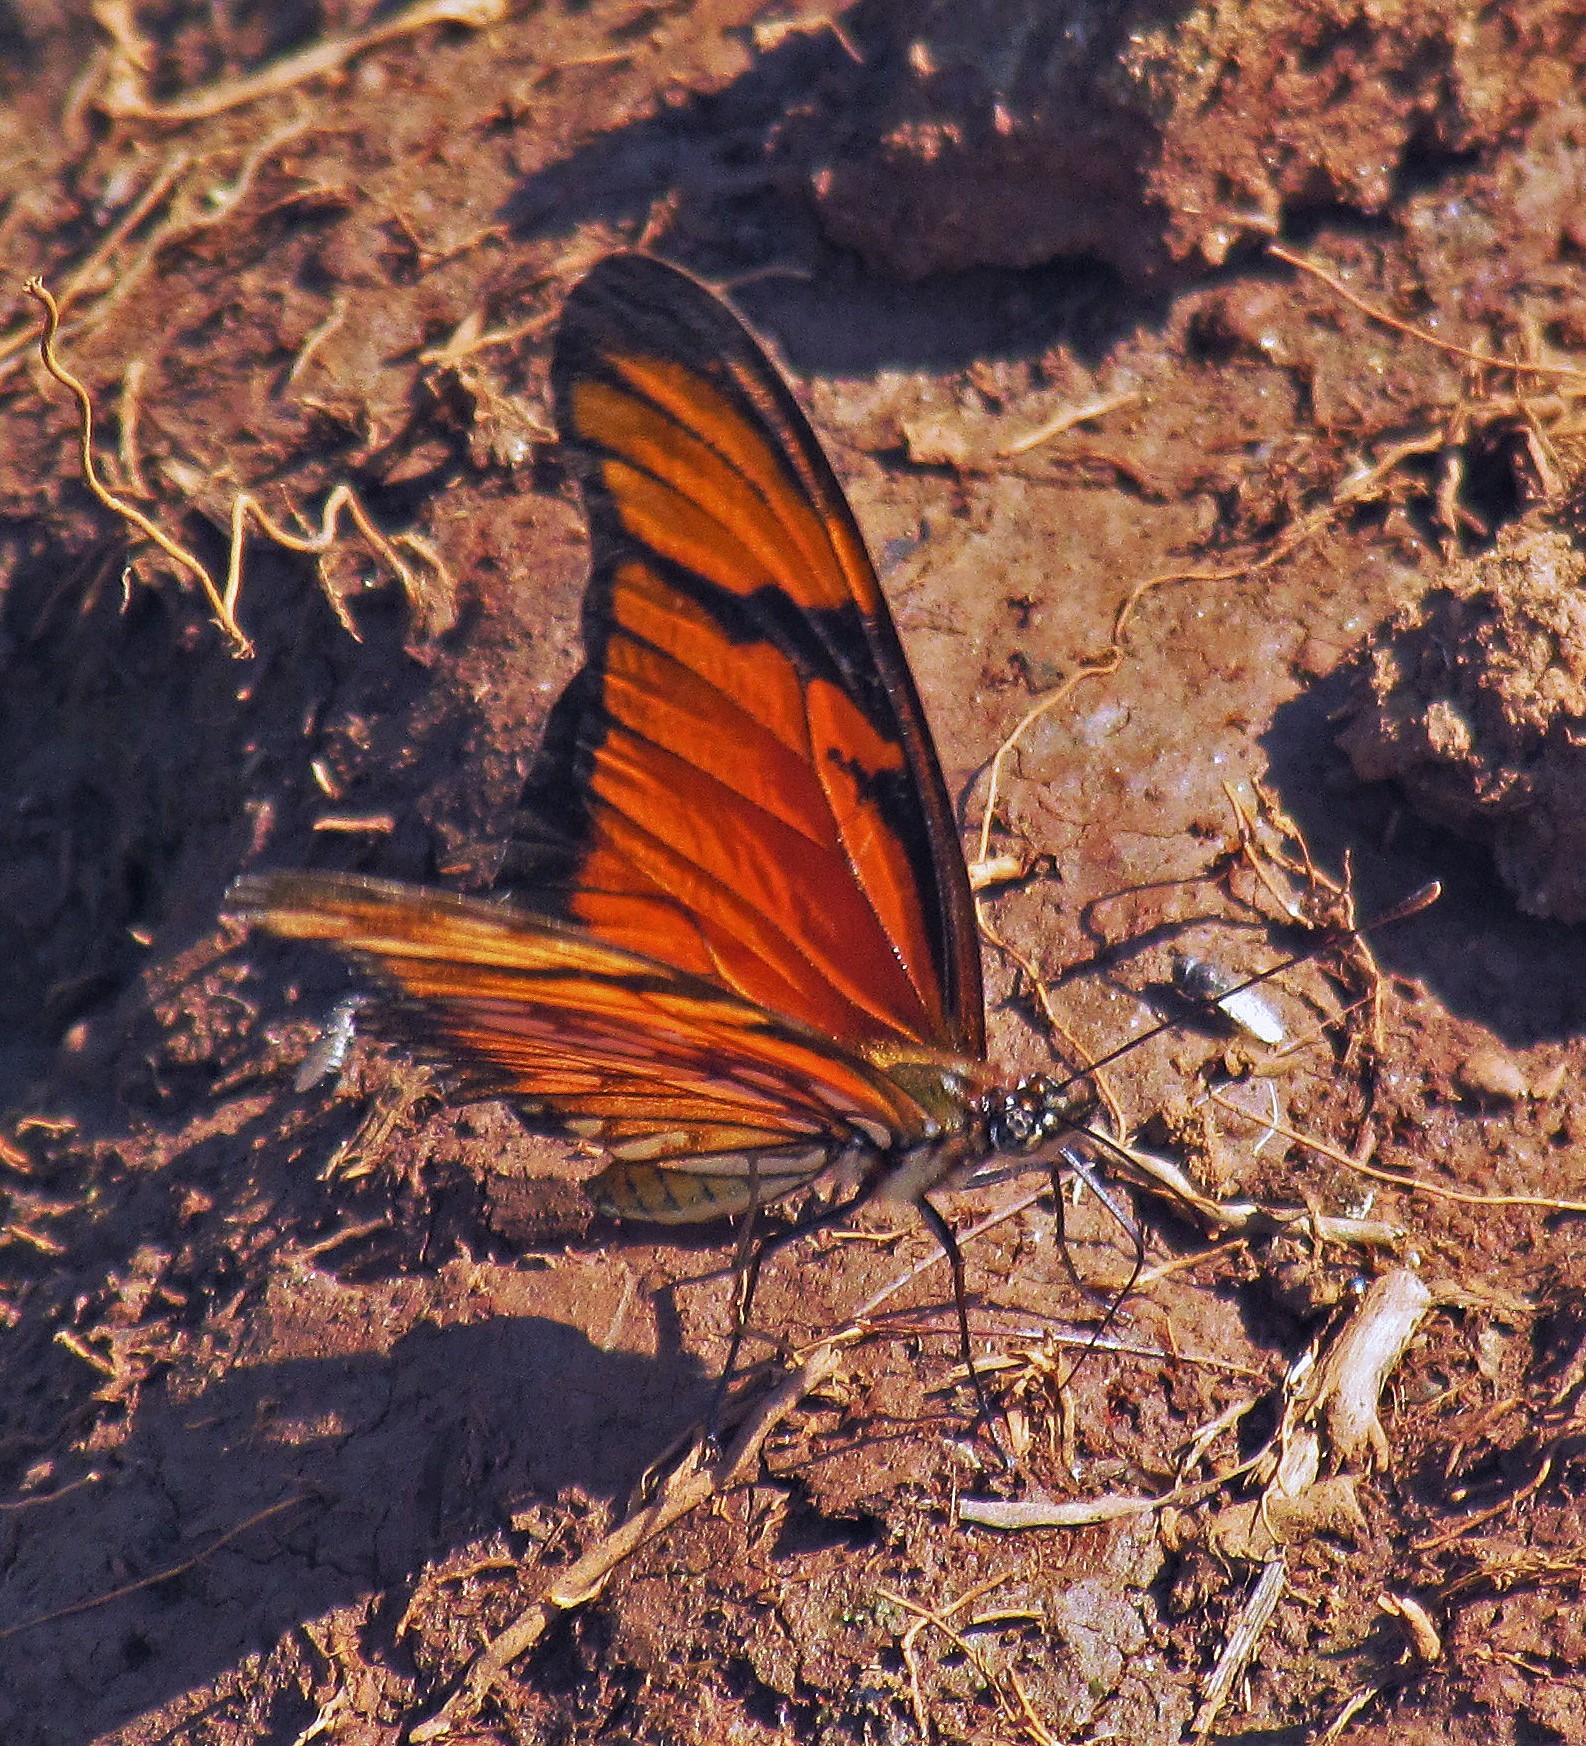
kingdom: Animalia
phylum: Arthropoda
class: Insecta
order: Lepidoptera
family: Nymphalidae
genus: Dione
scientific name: Dione juno
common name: Juno silverspot
